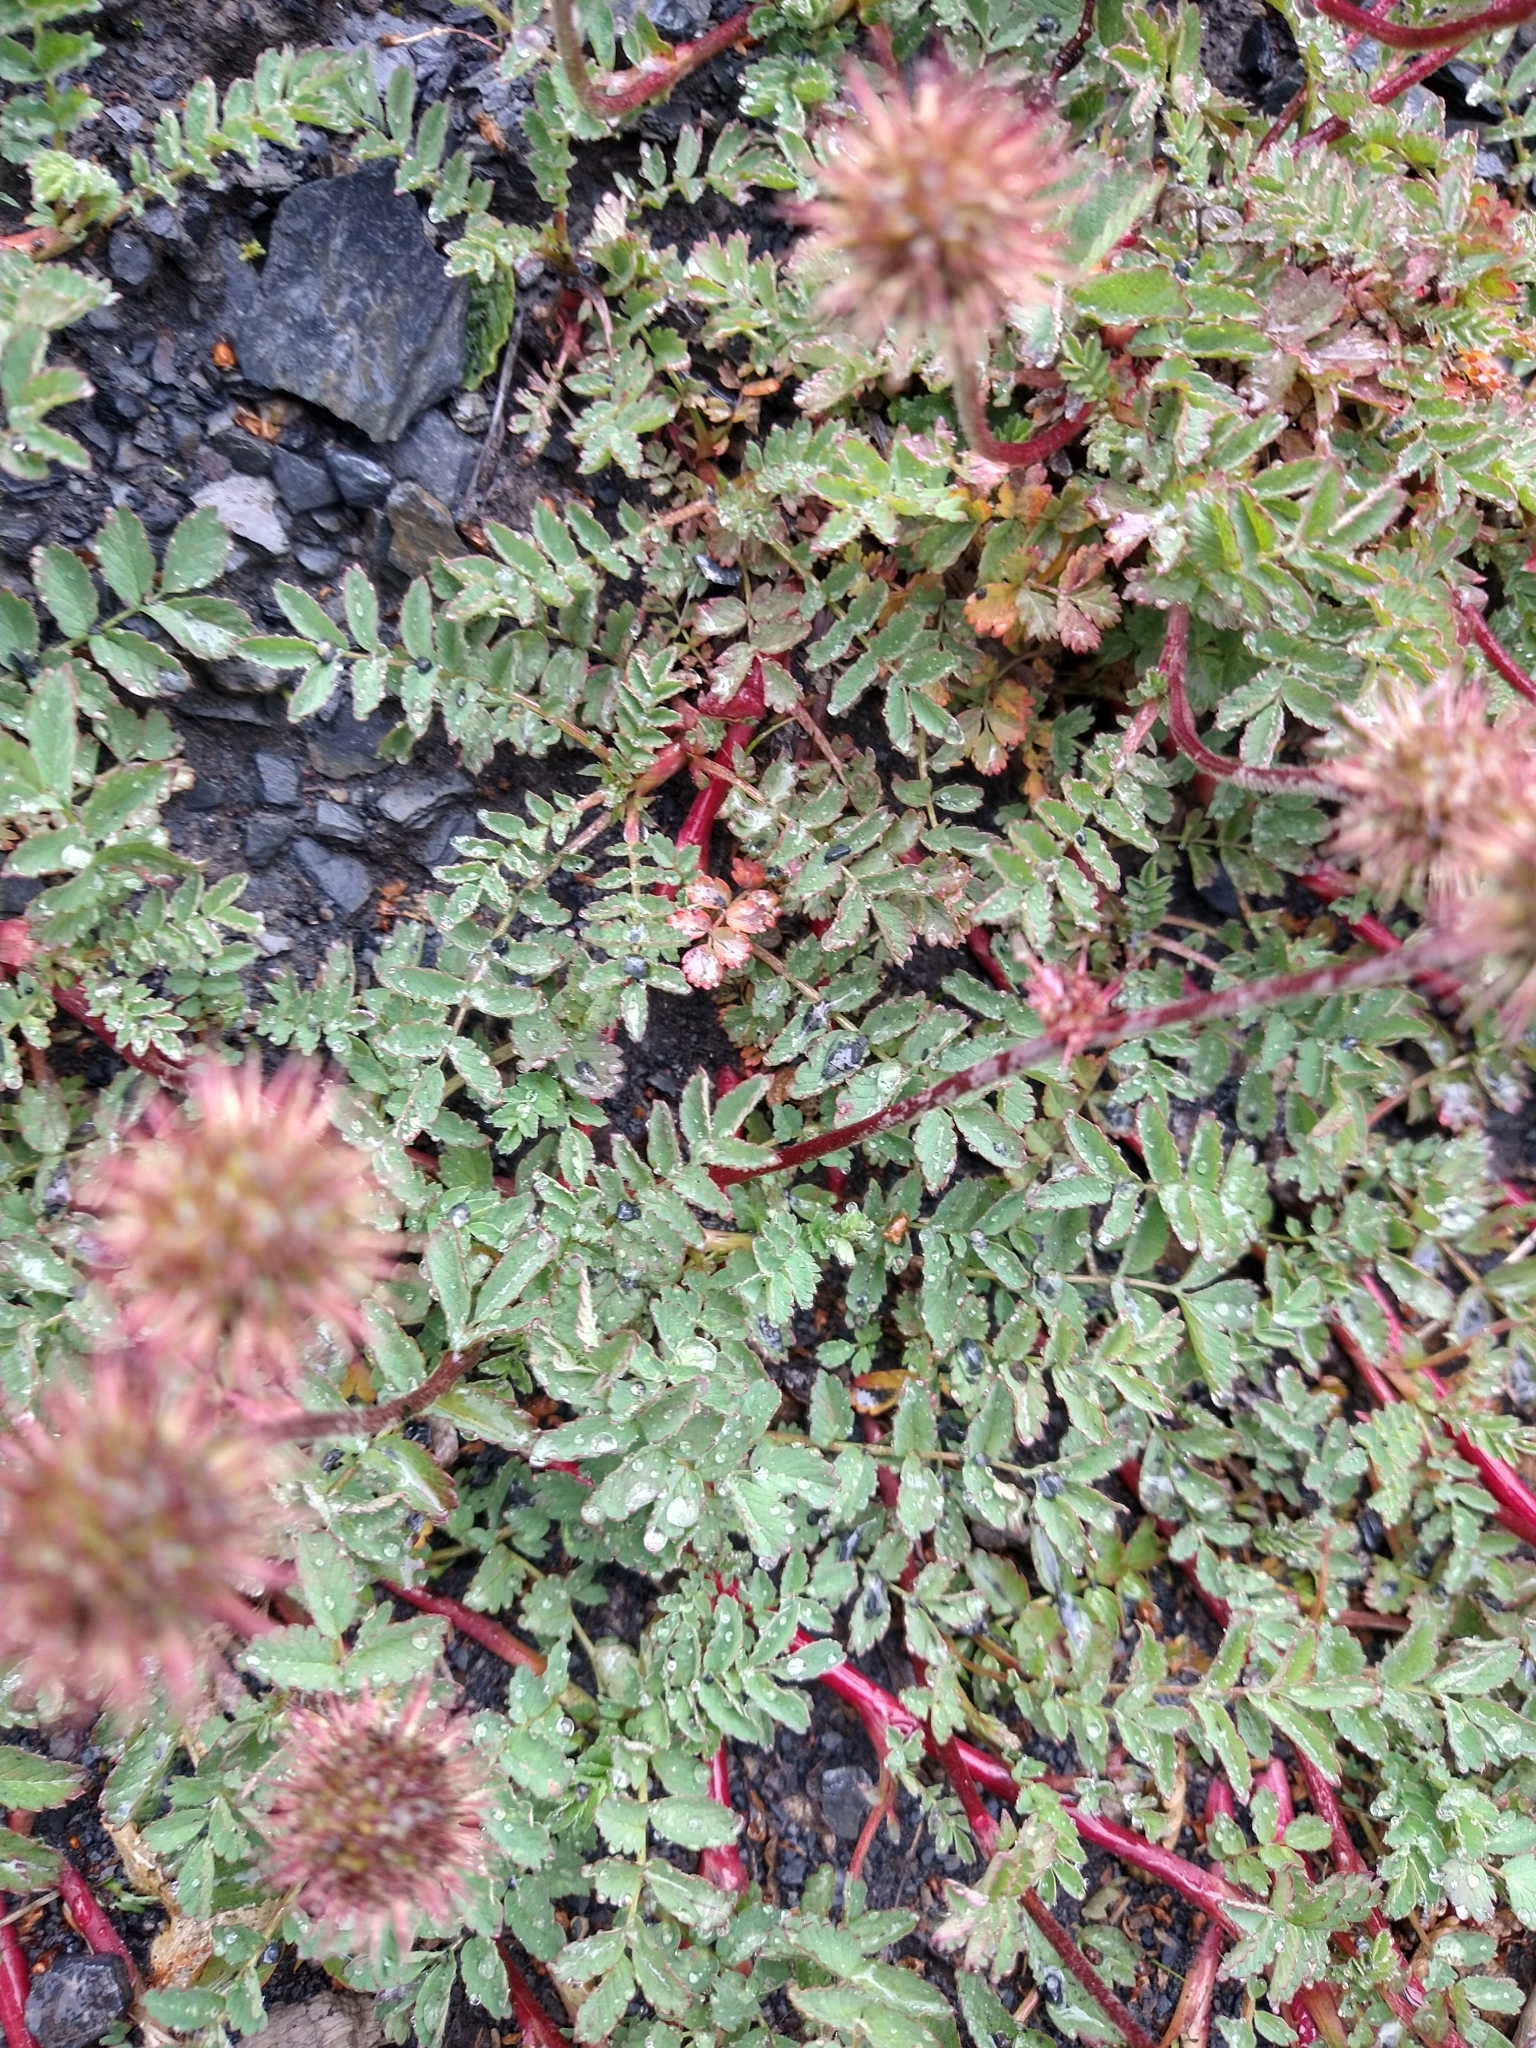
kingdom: Plantae
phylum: Tracheophyta
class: Magnoliopsida
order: Rosales
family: Rosaceae
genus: Acaena
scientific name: Acaena magellanica
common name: New zealand burr
